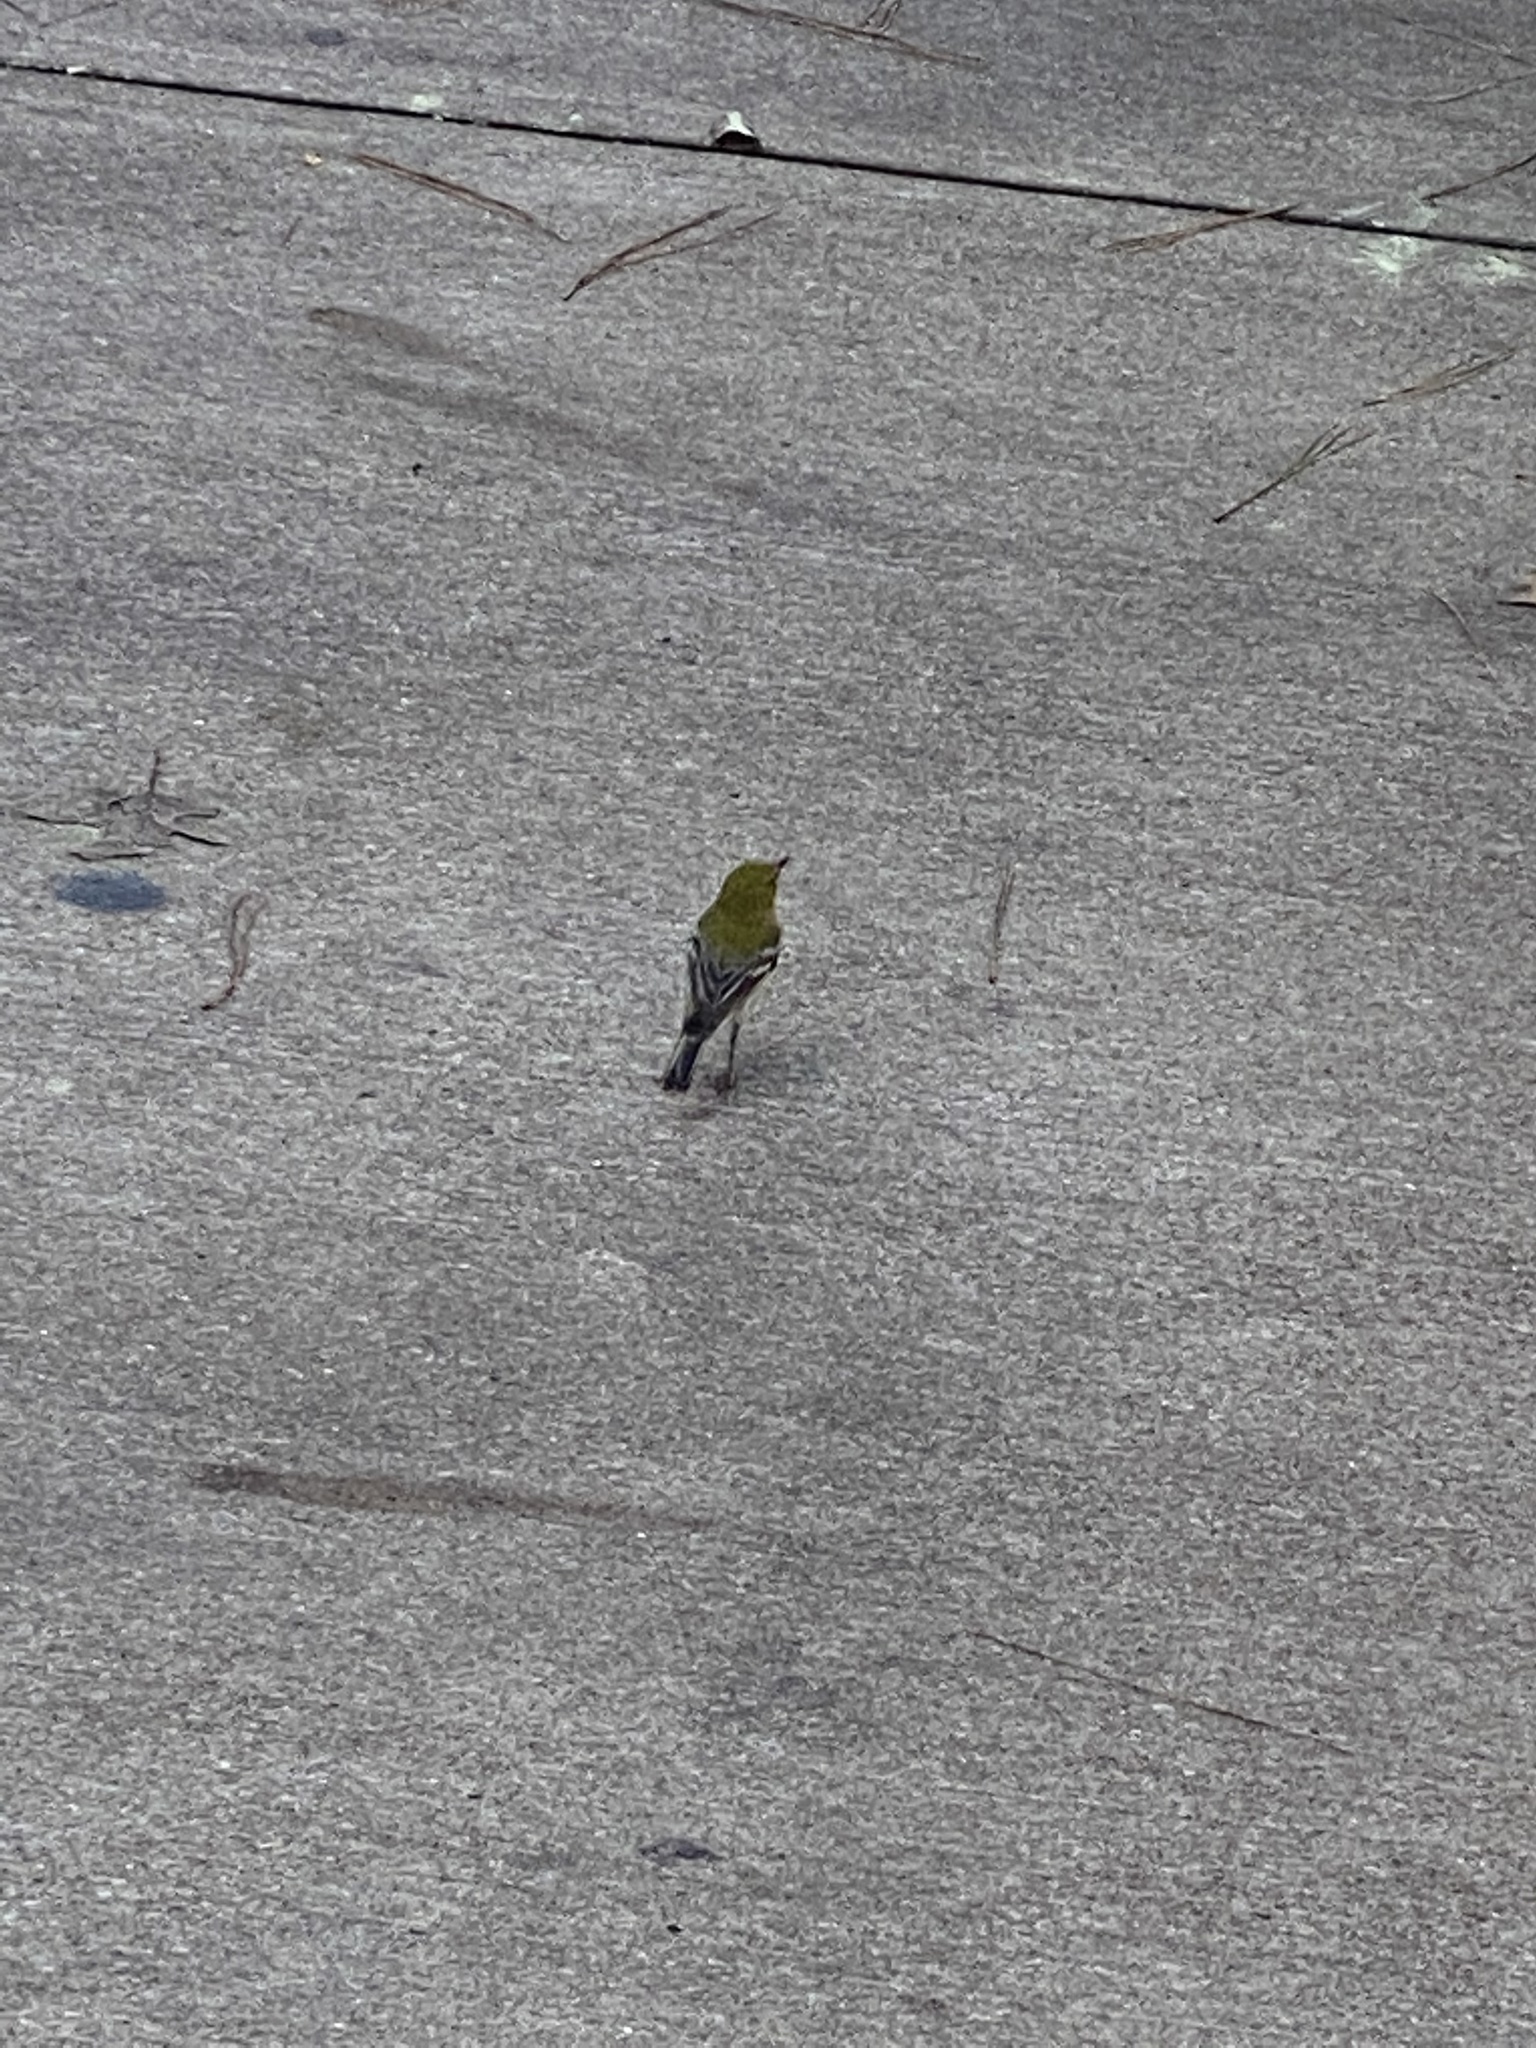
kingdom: Animalia
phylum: Chordata
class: Aves
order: Passeriformes
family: Parulidae
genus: Setophaga
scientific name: Setophaga pinus
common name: Pine warbler
